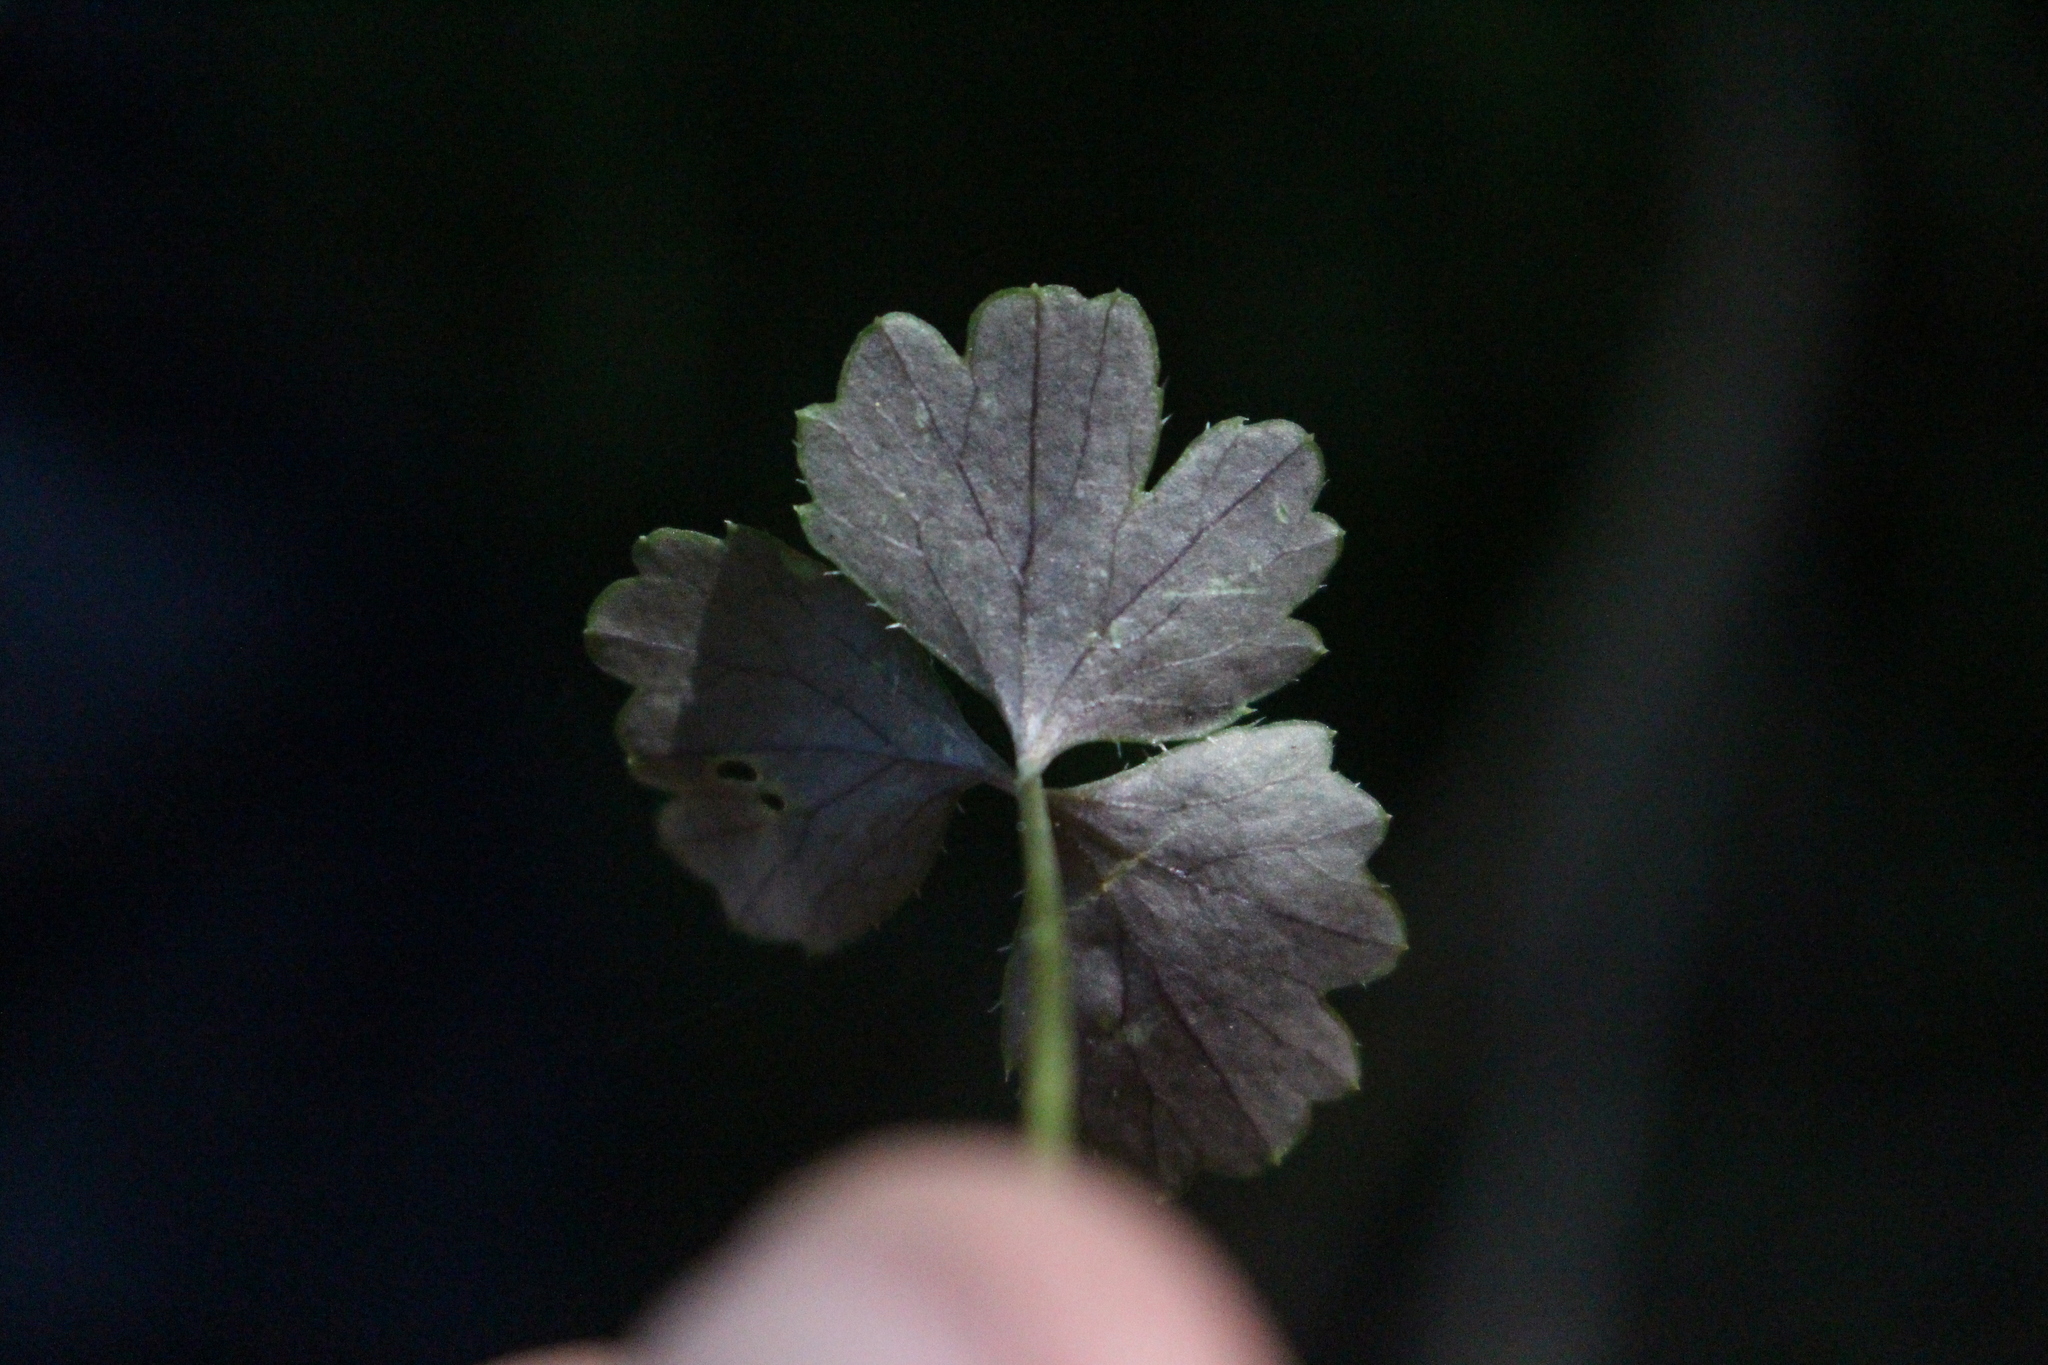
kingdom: Plantae
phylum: Tracheophyta
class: Magnoliopsida
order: Apiales
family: Apiaceae
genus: Azorella
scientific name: Azorella hookeri
